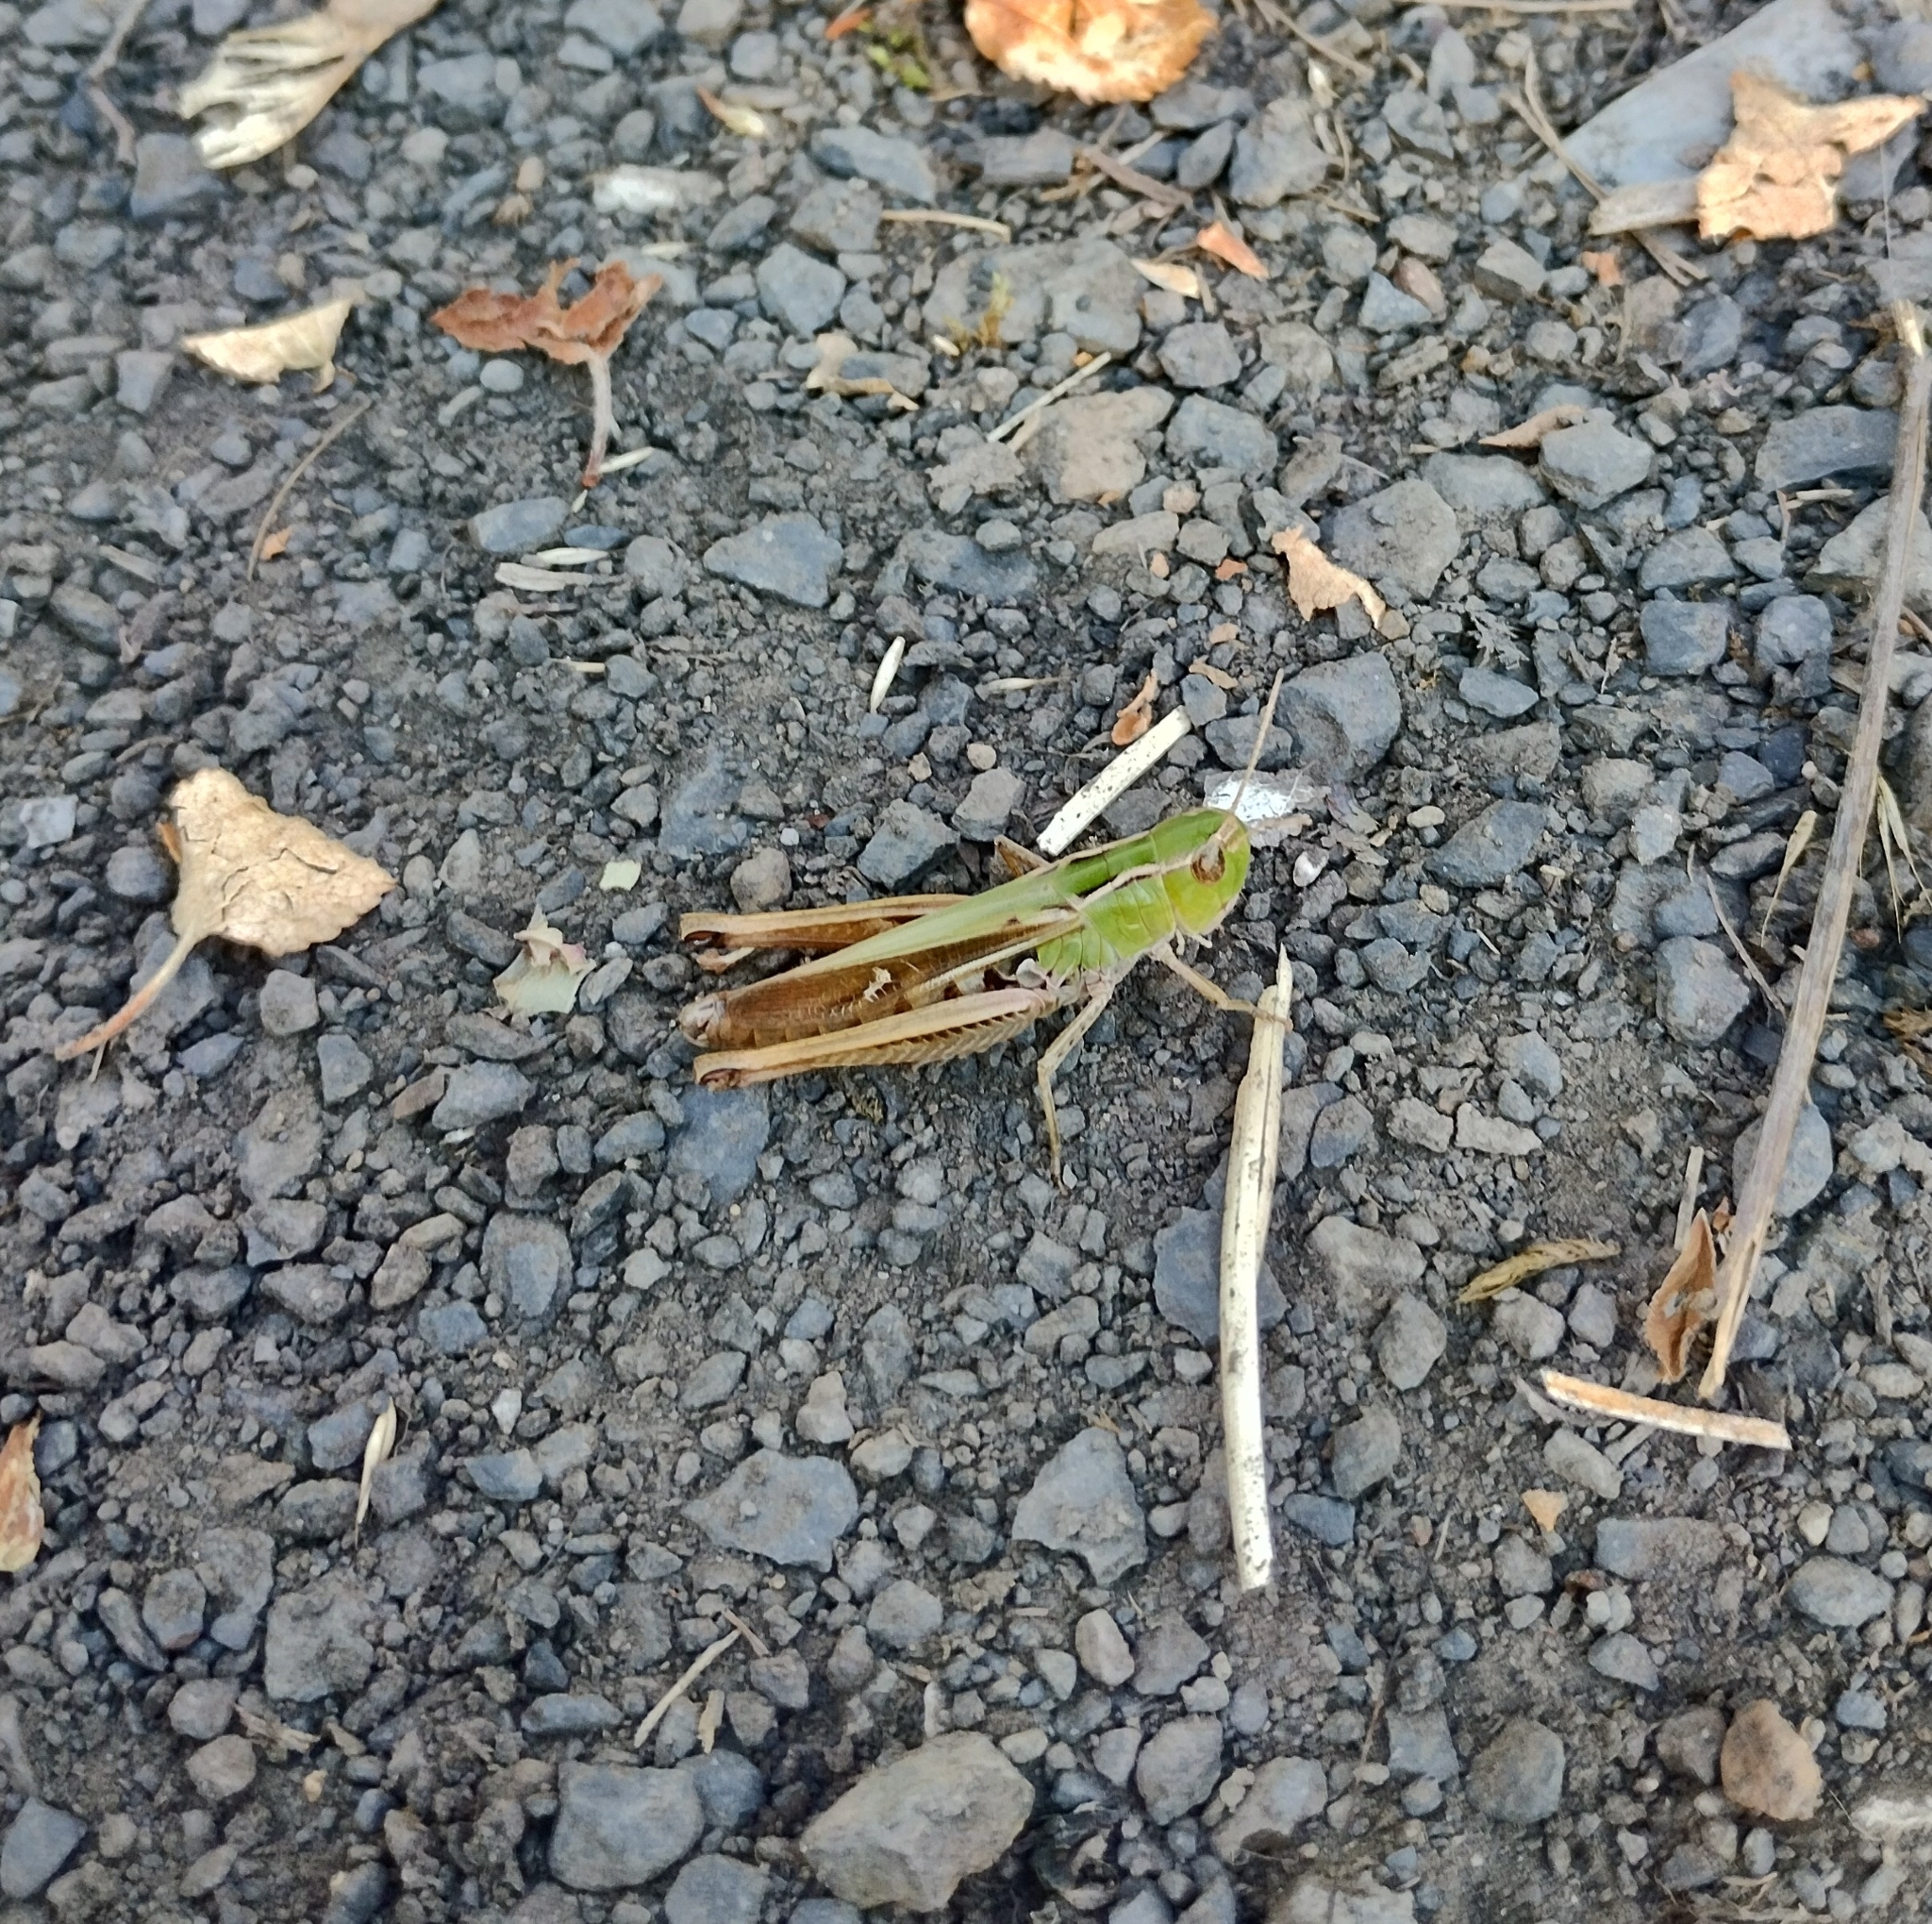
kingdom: Animalia
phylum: Arthropoda
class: Insecta
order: Orthoptera
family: Acrididae
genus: Stenobothrus
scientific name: Stenobothrus lineatus
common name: Stripe-winged grasshopper
